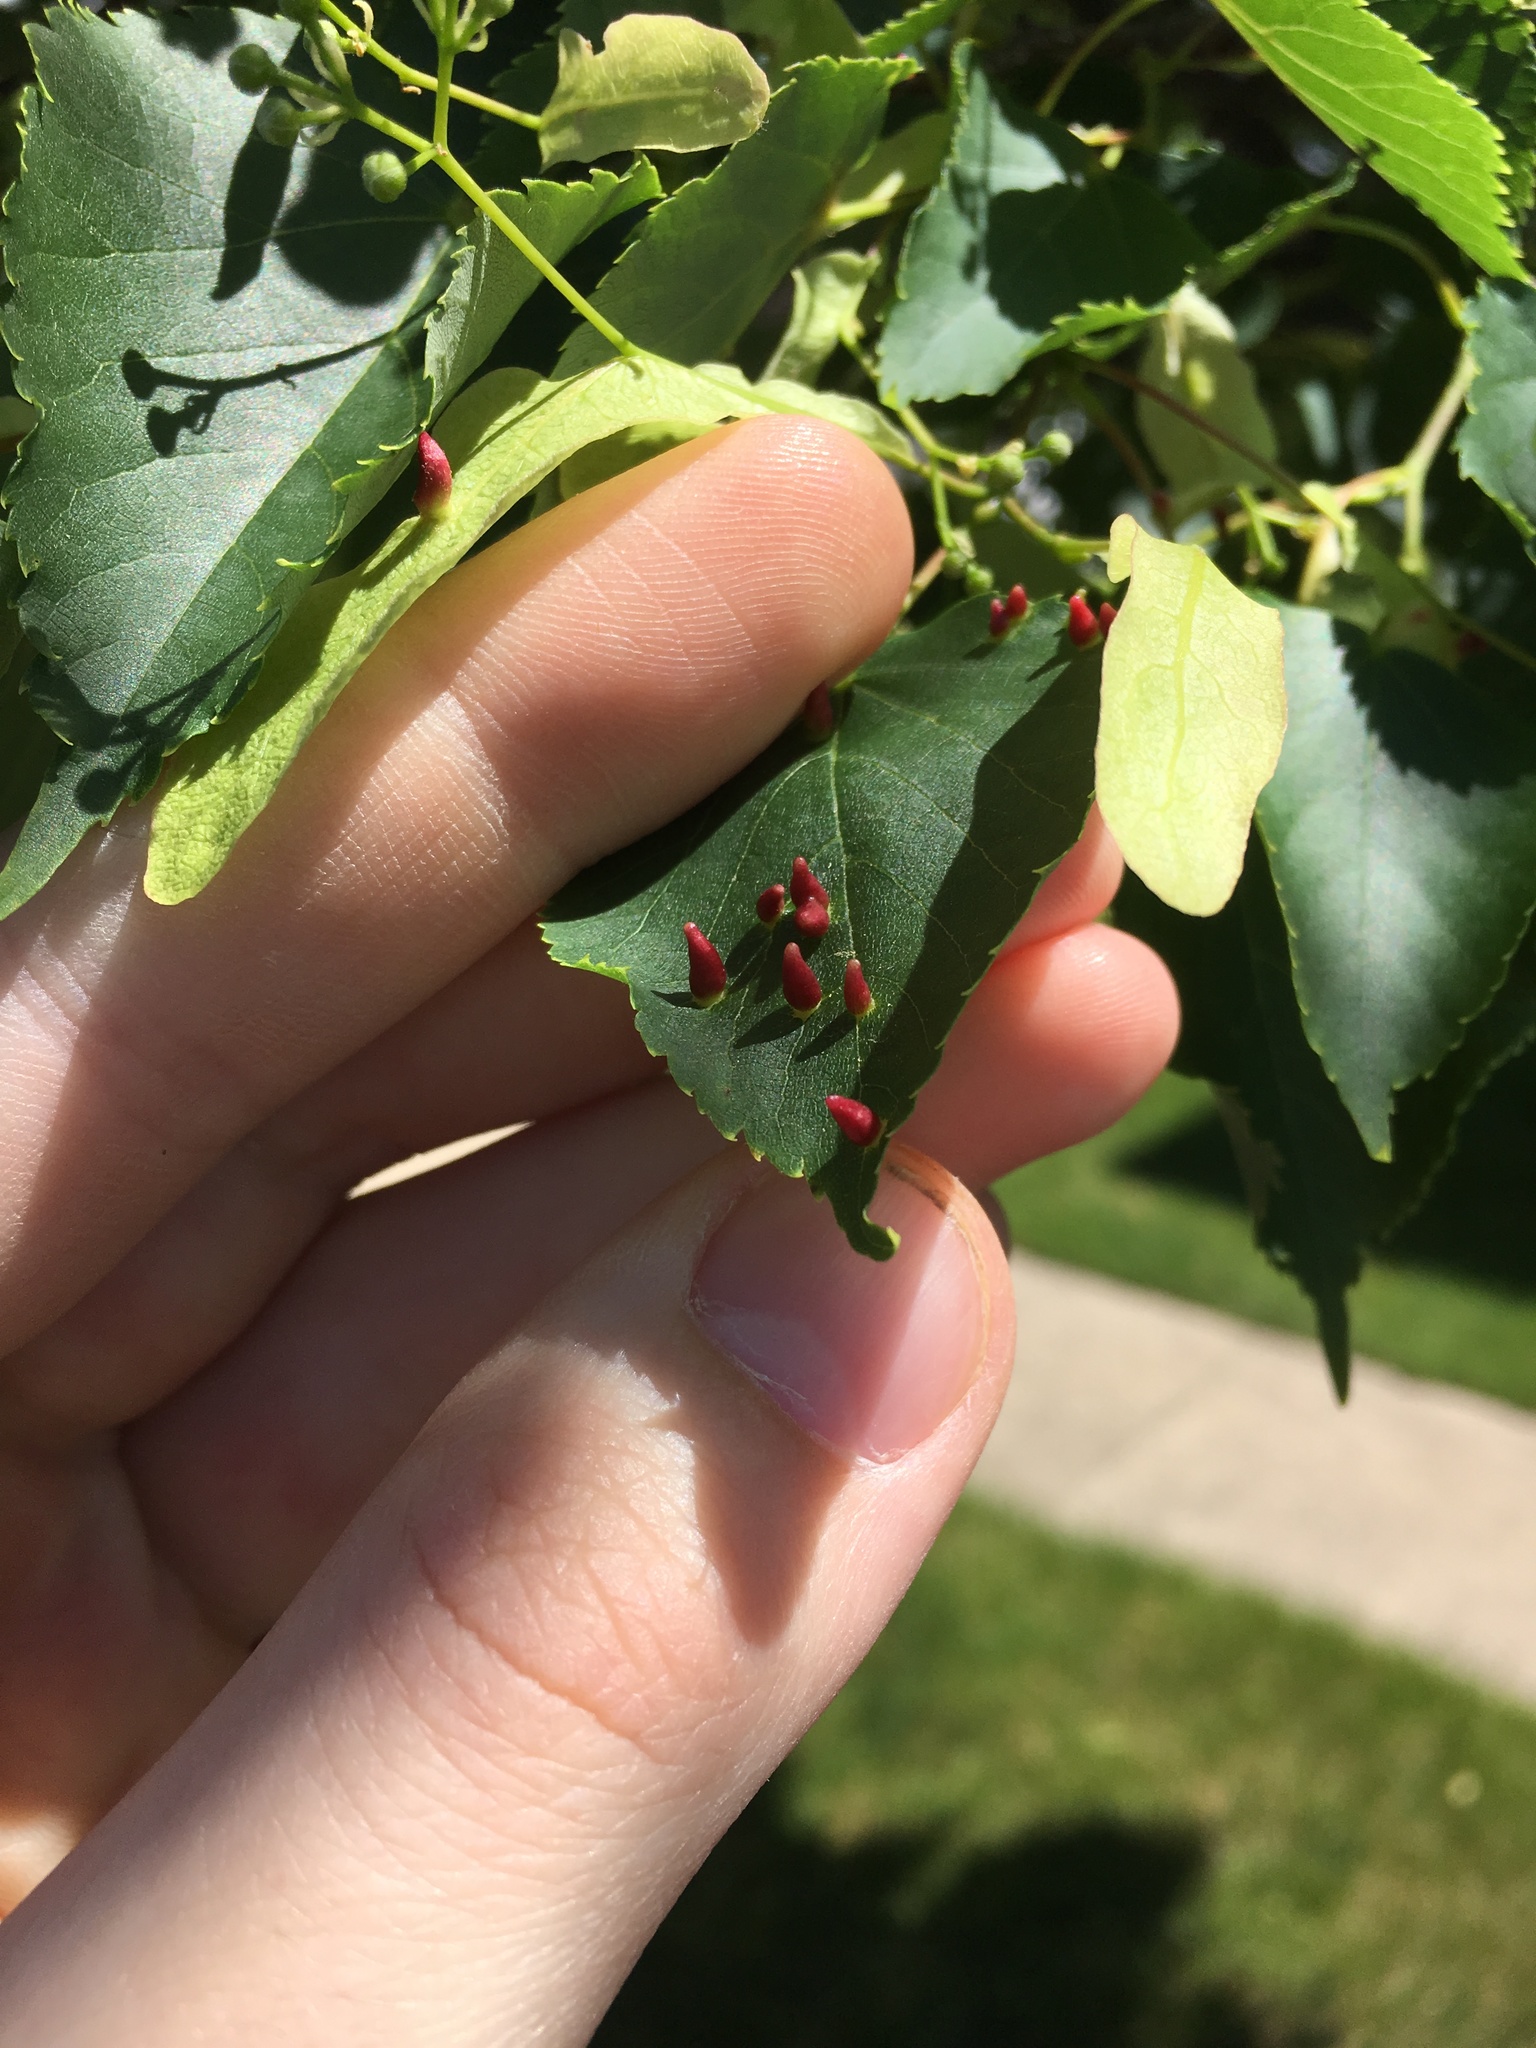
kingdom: Animalia
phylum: Arthropoda
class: Arachnida
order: Trombidiformes
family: Eriophyidae
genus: Eriophyes
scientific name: Eriophyes tiliae
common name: Red nail gall mite
